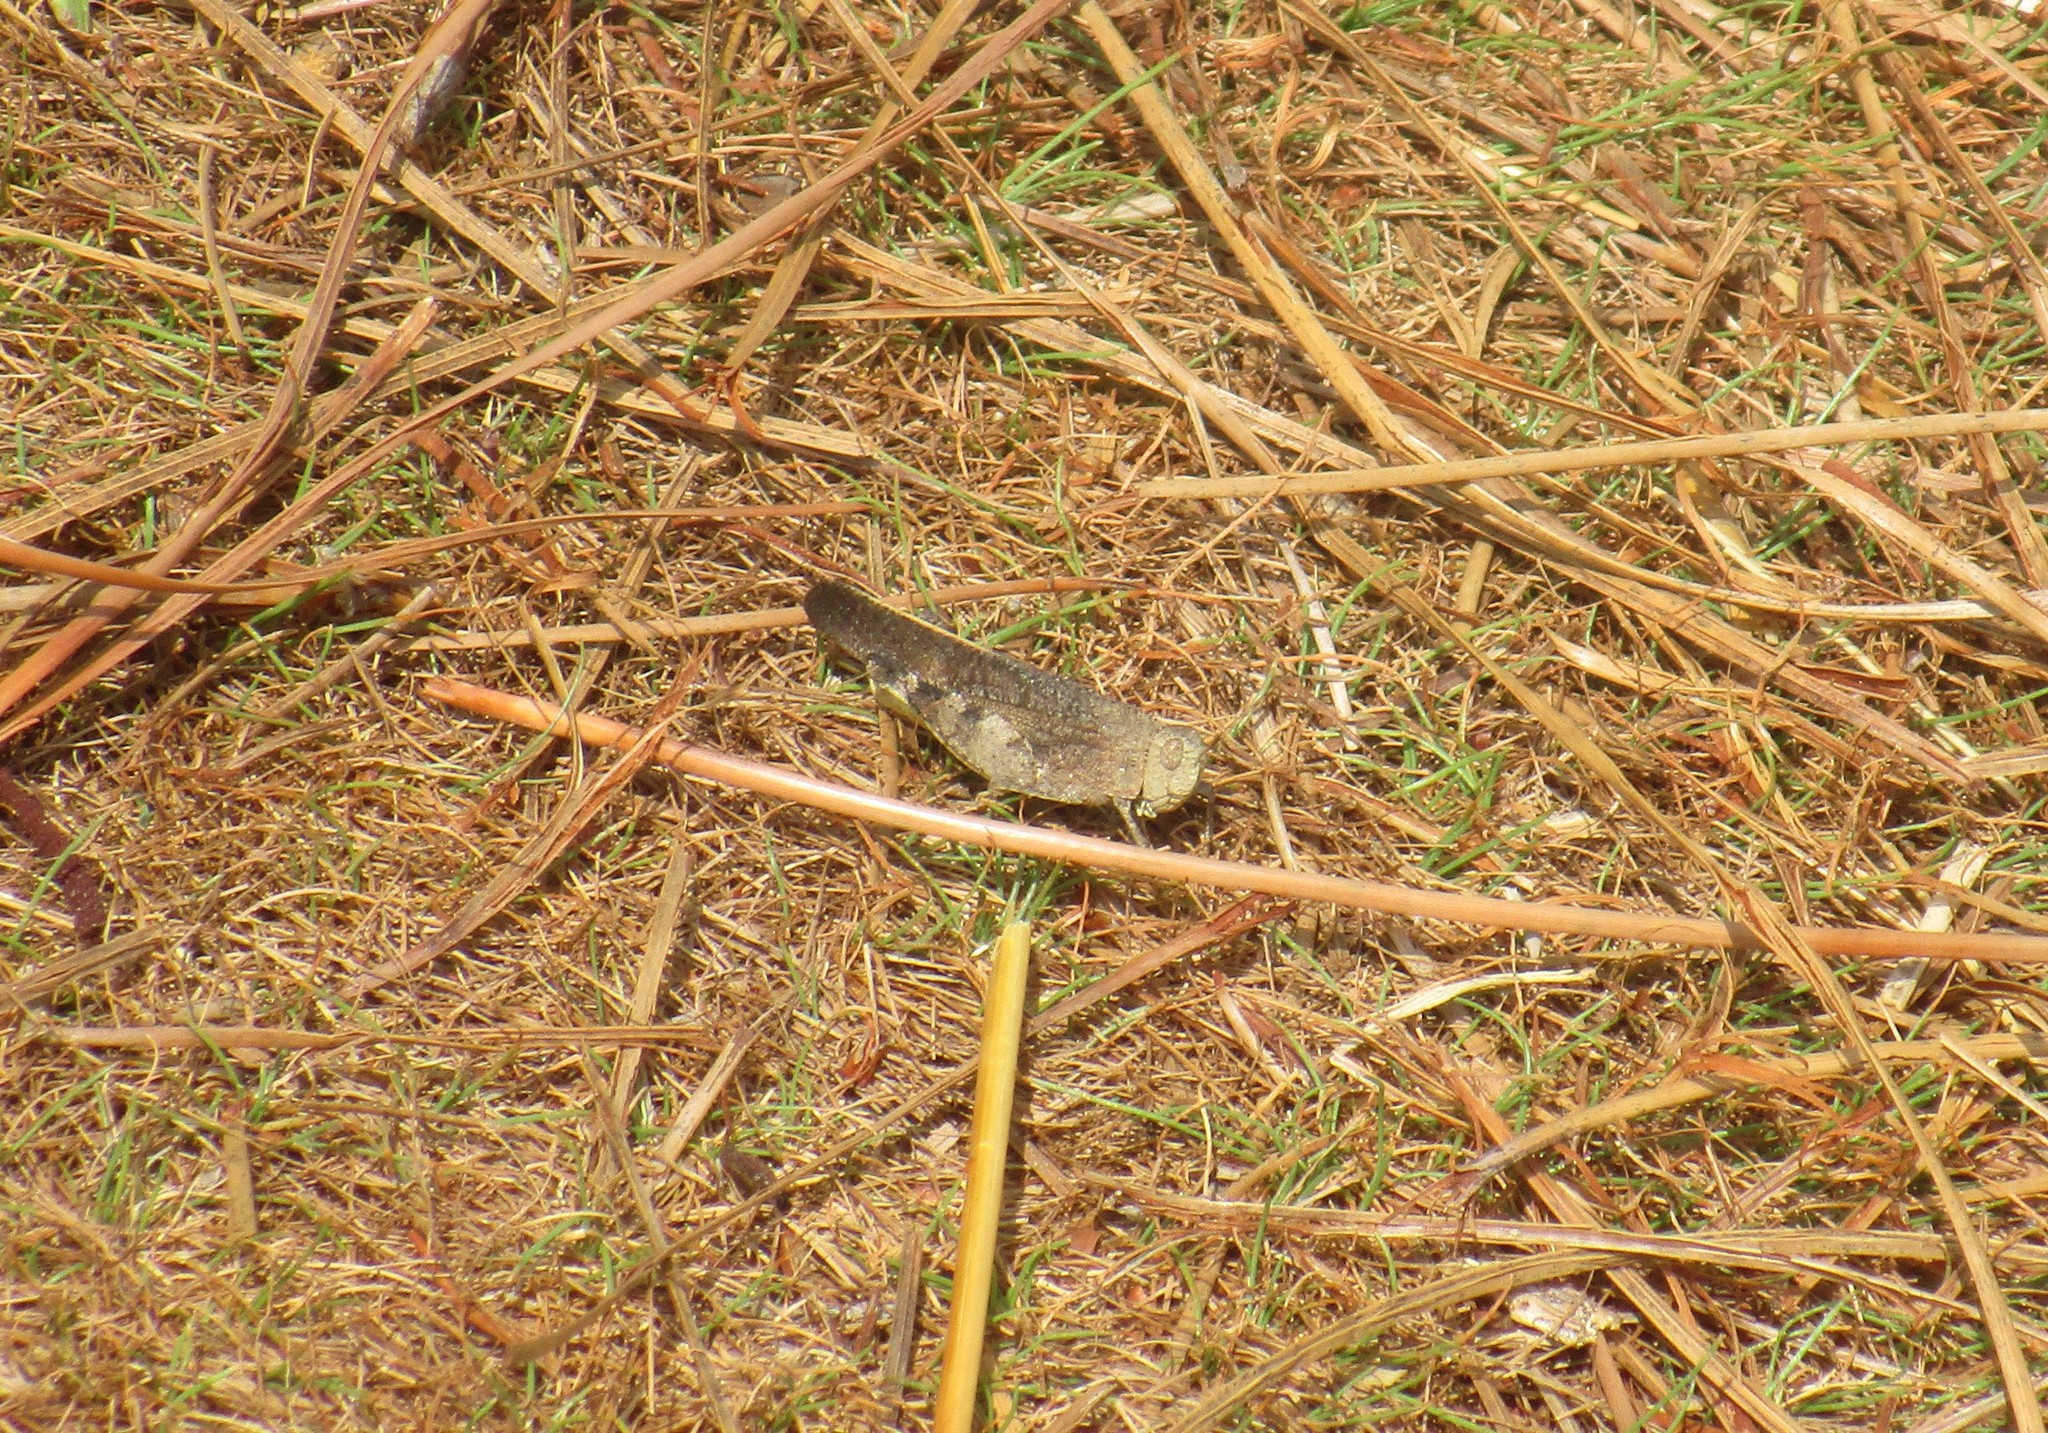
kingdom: Animalia
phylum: Arthropoda
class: Insecta
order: Orthoptera
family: Acrididae
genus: Arphia
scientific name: Arphia granulata
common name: Southern yellow-winged grasshopper
